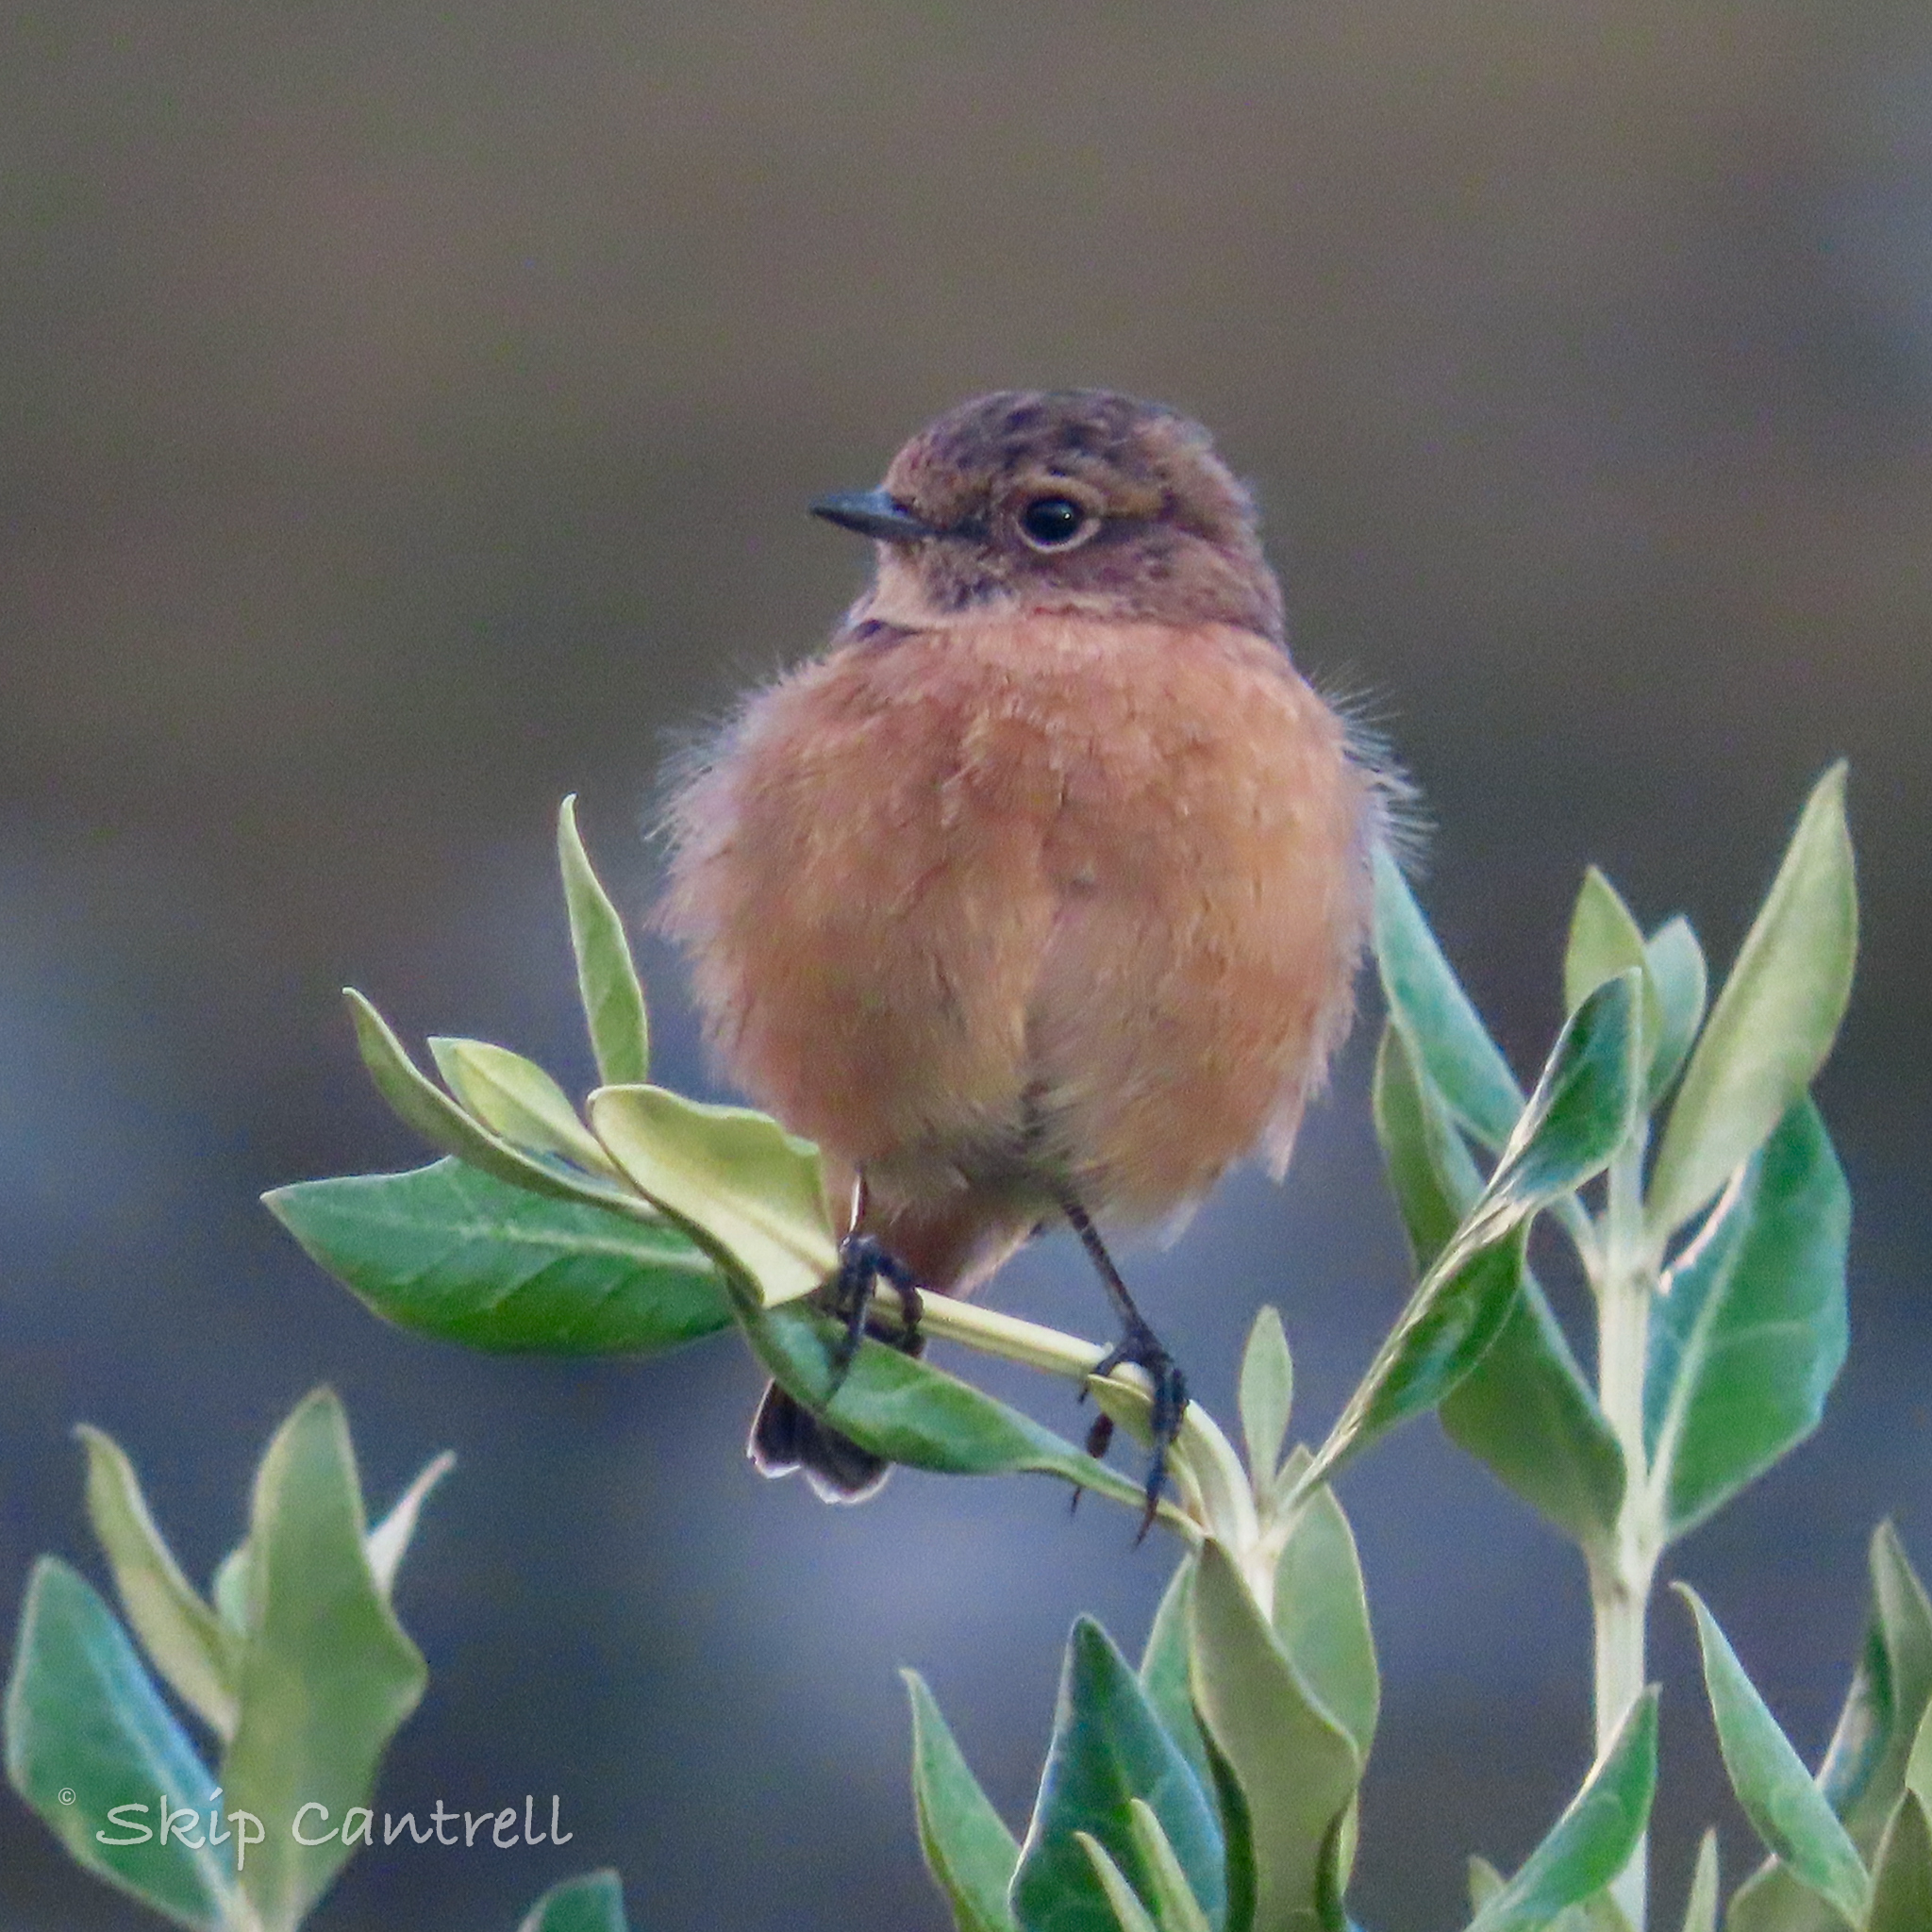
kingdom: Animalia
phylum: Chordata
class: Aves
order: Passeriformes
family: Muscicapidae
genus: Saxicola
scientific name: Saxicola rubicola
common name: European stonechat
